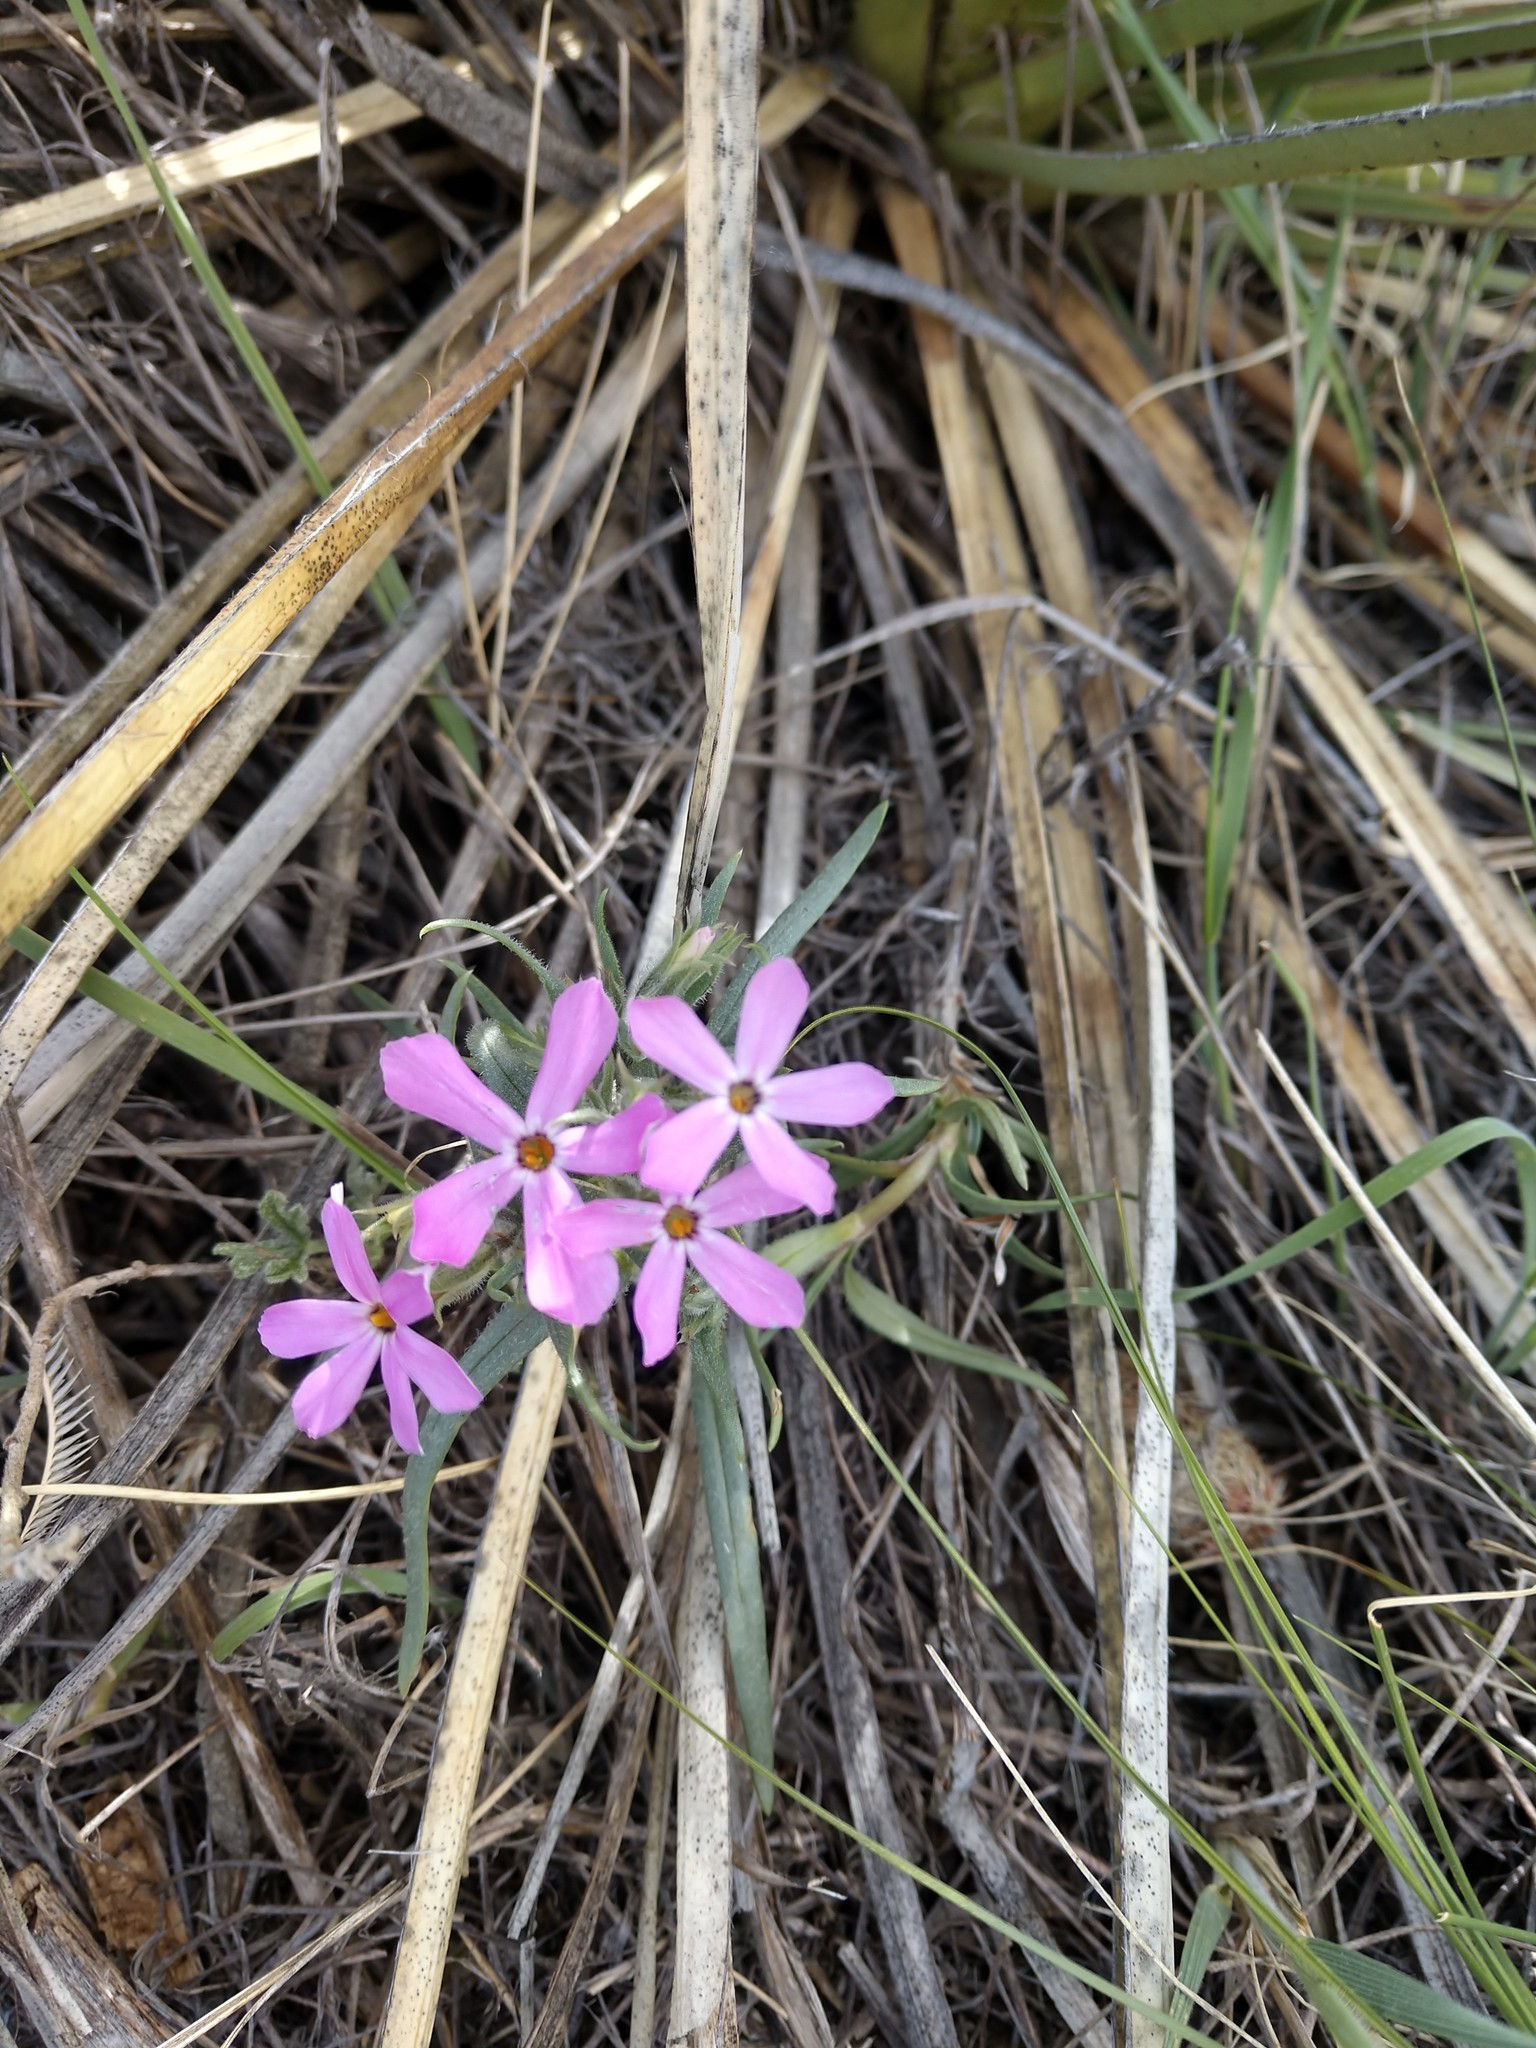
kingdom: Plantae
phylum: Tracheophyta
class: Magnoliopsida
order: Ericales
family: Polemoniaceae
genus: Phlox
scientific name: Phlox longifolia
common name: Longleaf phlox
